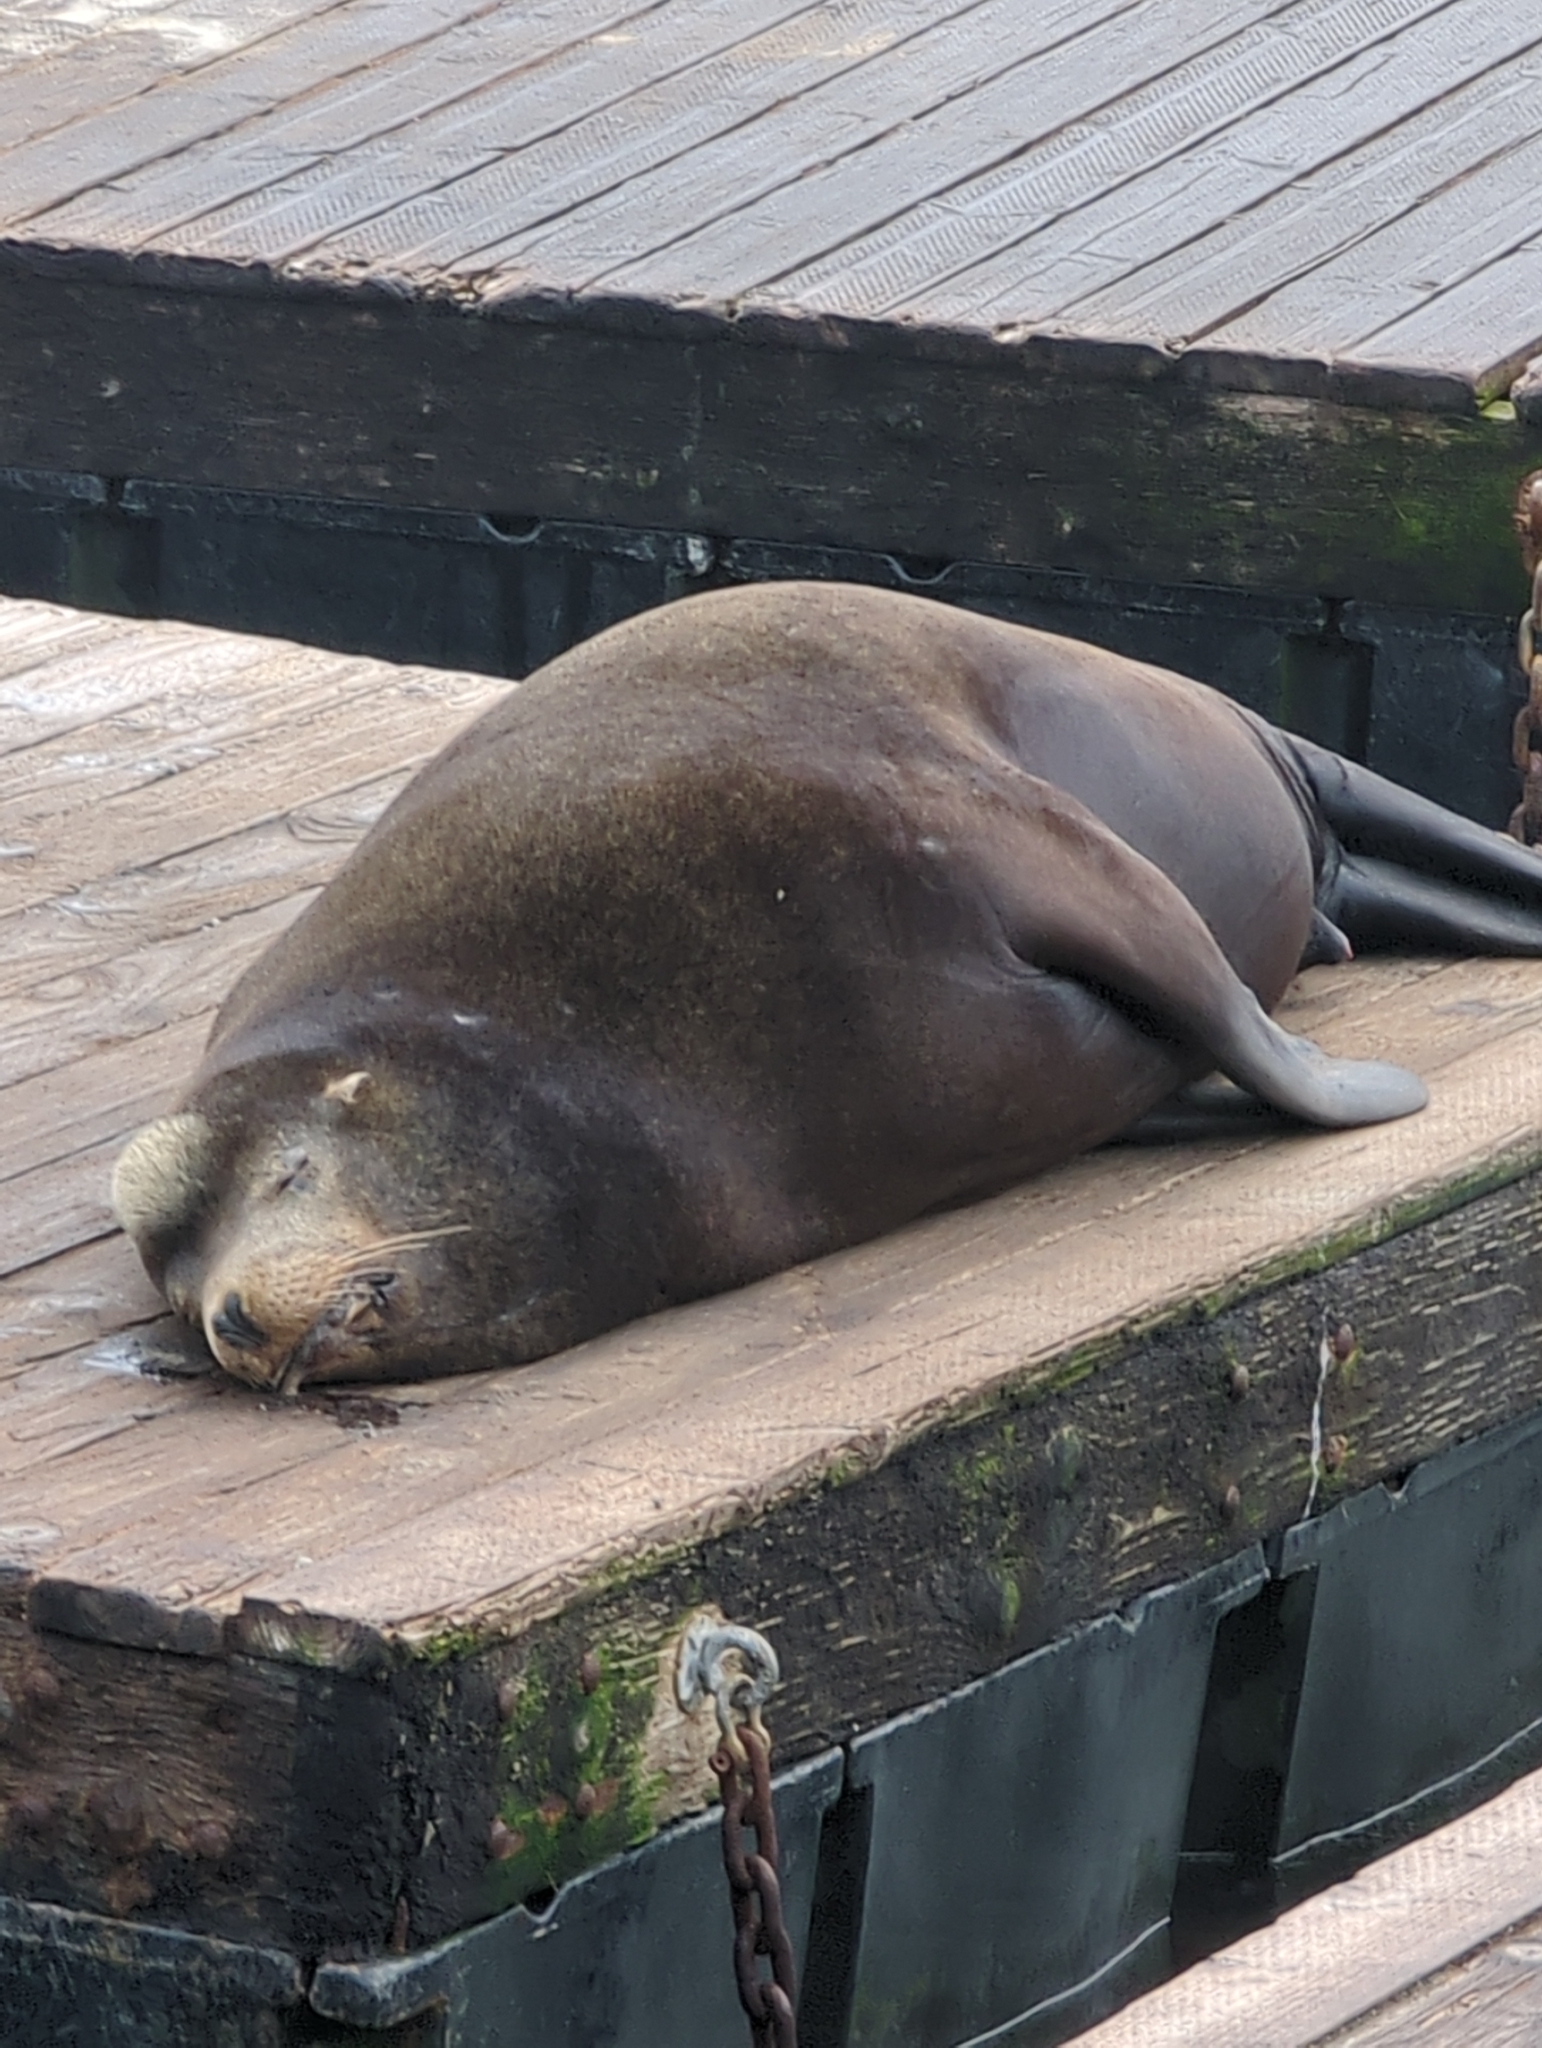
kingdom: Animalia
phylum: Chordata
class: Mammalia
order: Carnivora
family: Otariidae
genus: Zalophus
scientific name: Zalophus californianus
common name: California sea lion
